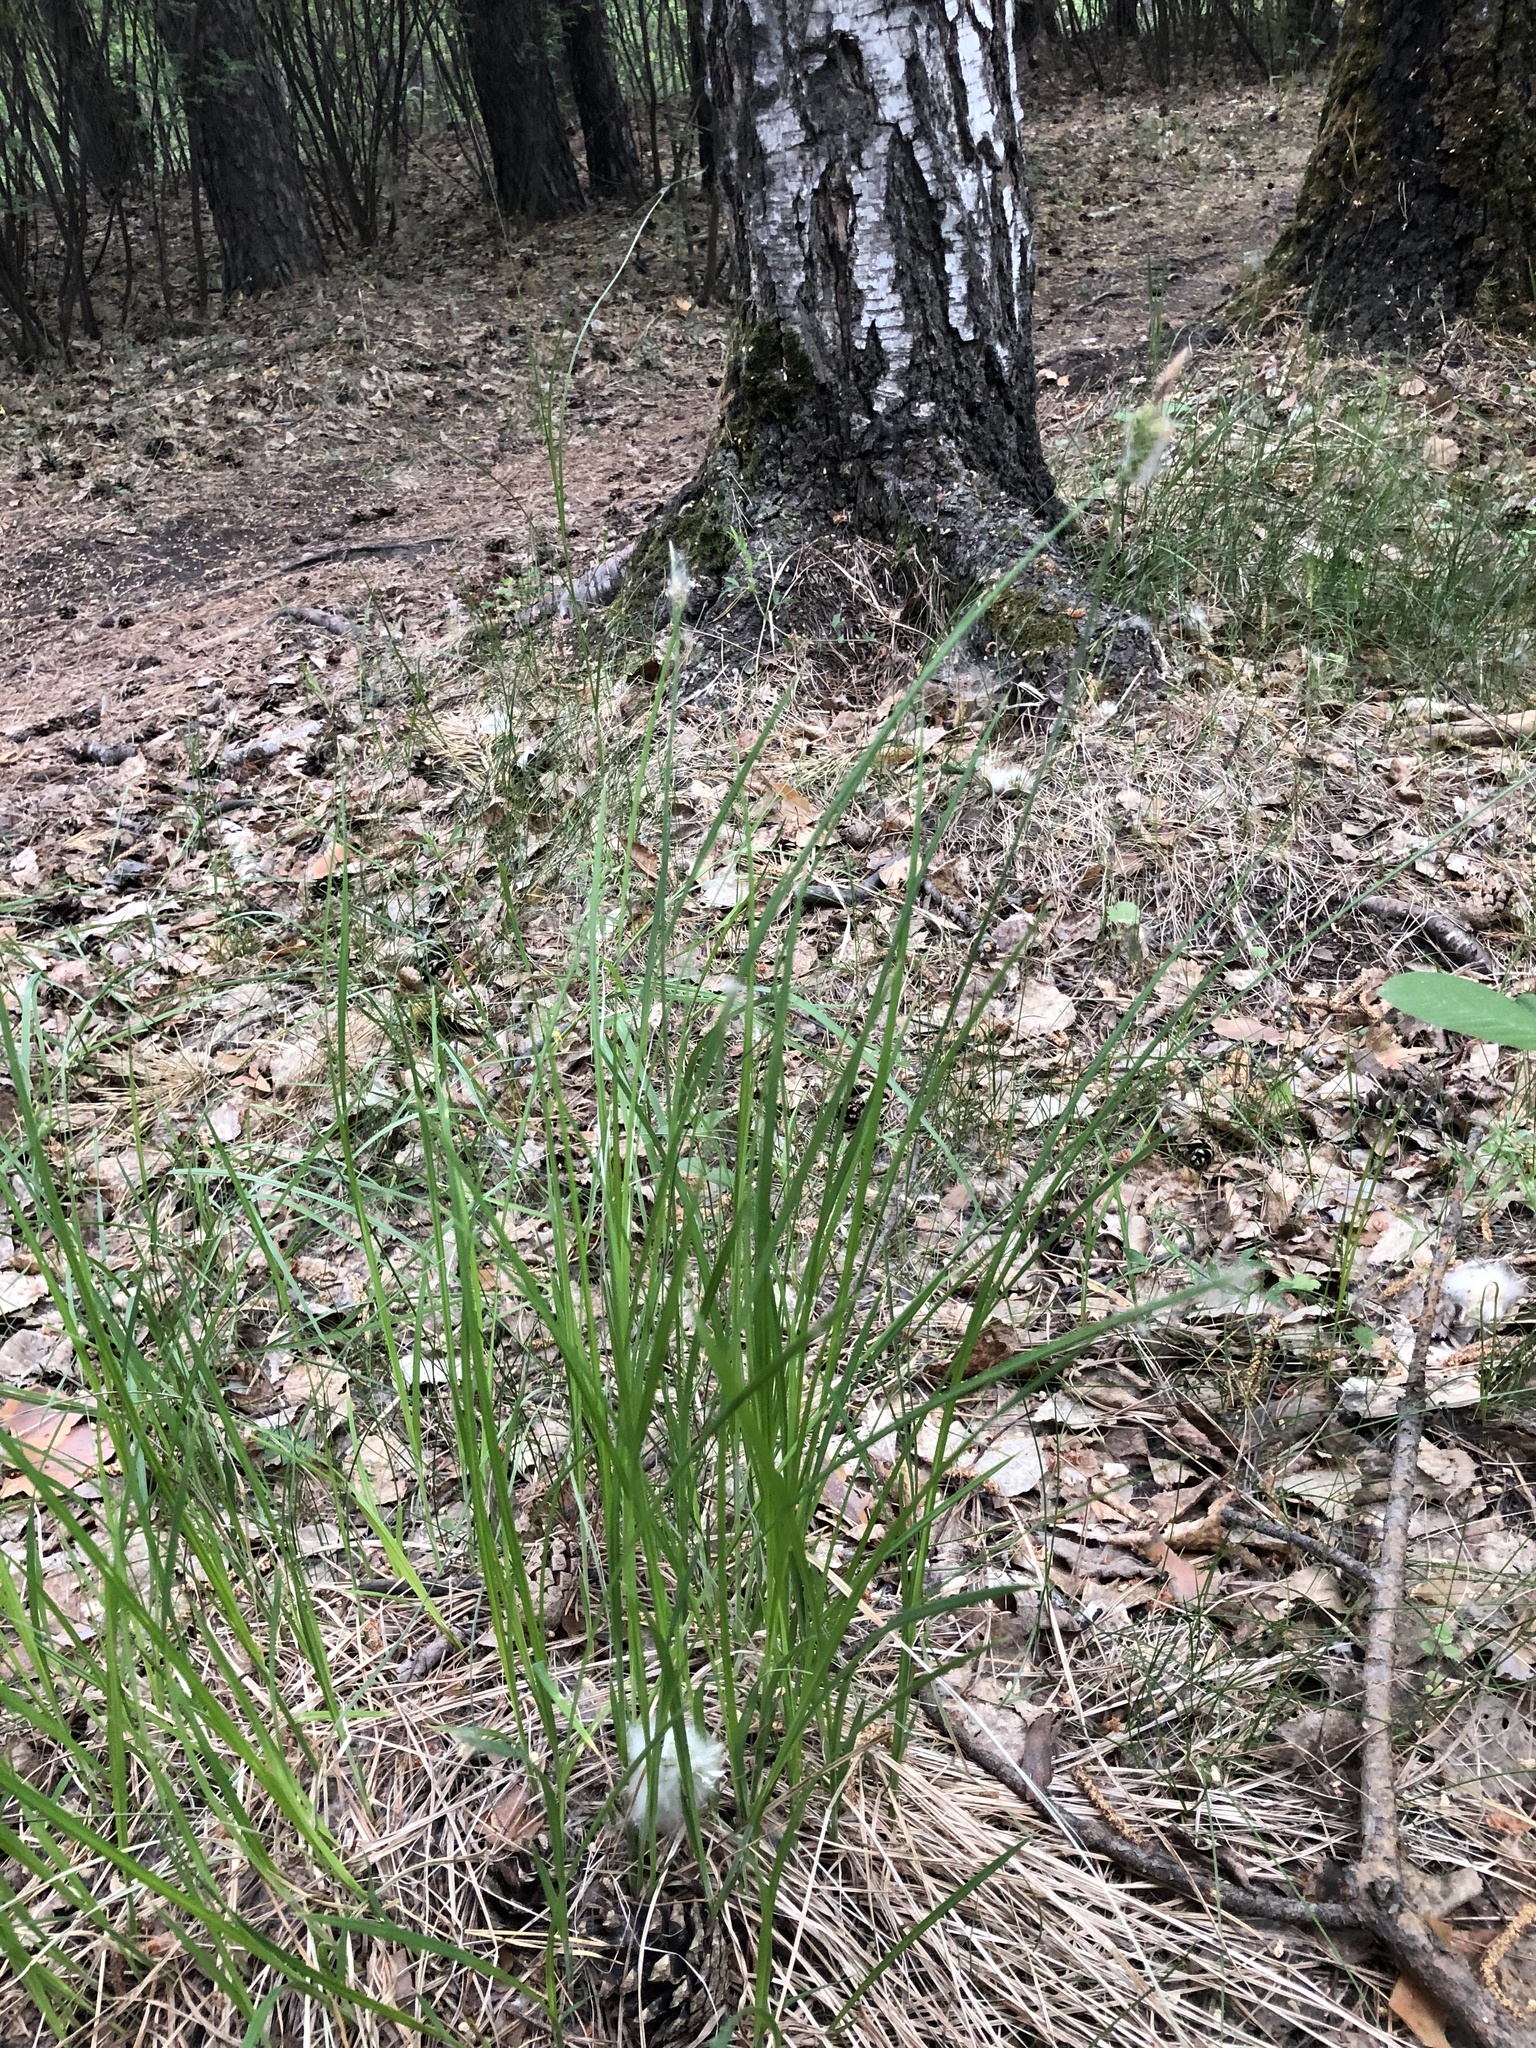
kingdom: Plantae
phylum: Tracheophyta
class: Liliopsida
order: Poales
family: Cyperaceae
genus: Carex
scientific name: Carex cespitosa
